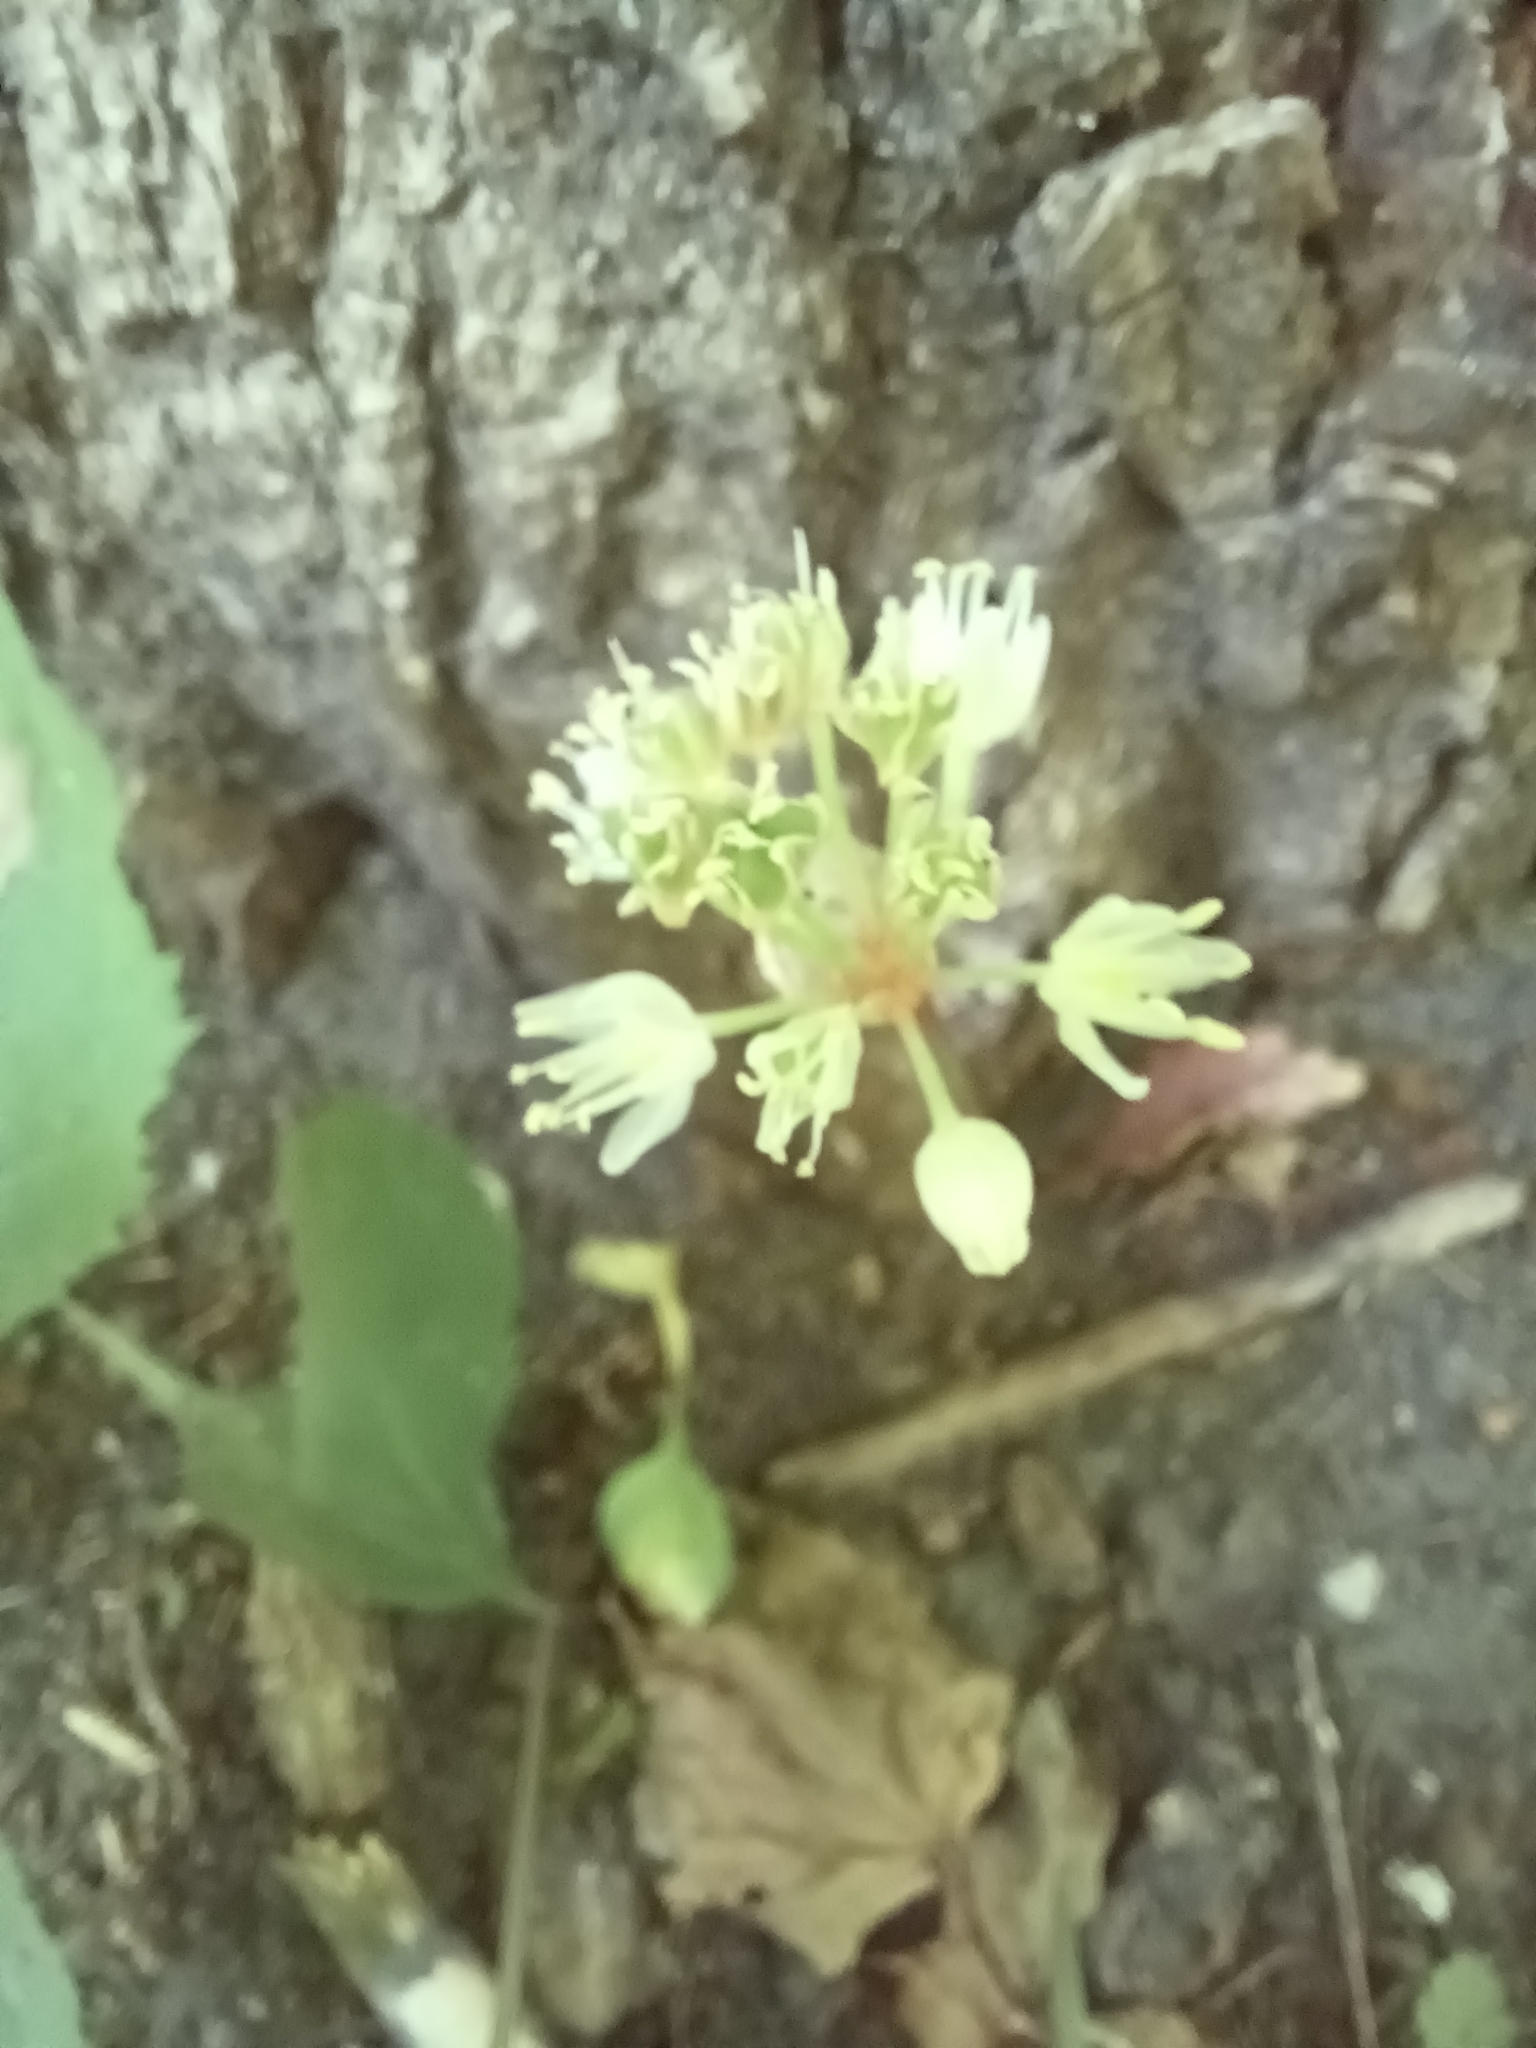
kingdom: Plantae
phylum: Tracheophyta
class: Liliopsida
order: Asparagales
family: Amaryllidaceae
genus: Allium
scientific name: Allium tricoccum
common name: Ramp
